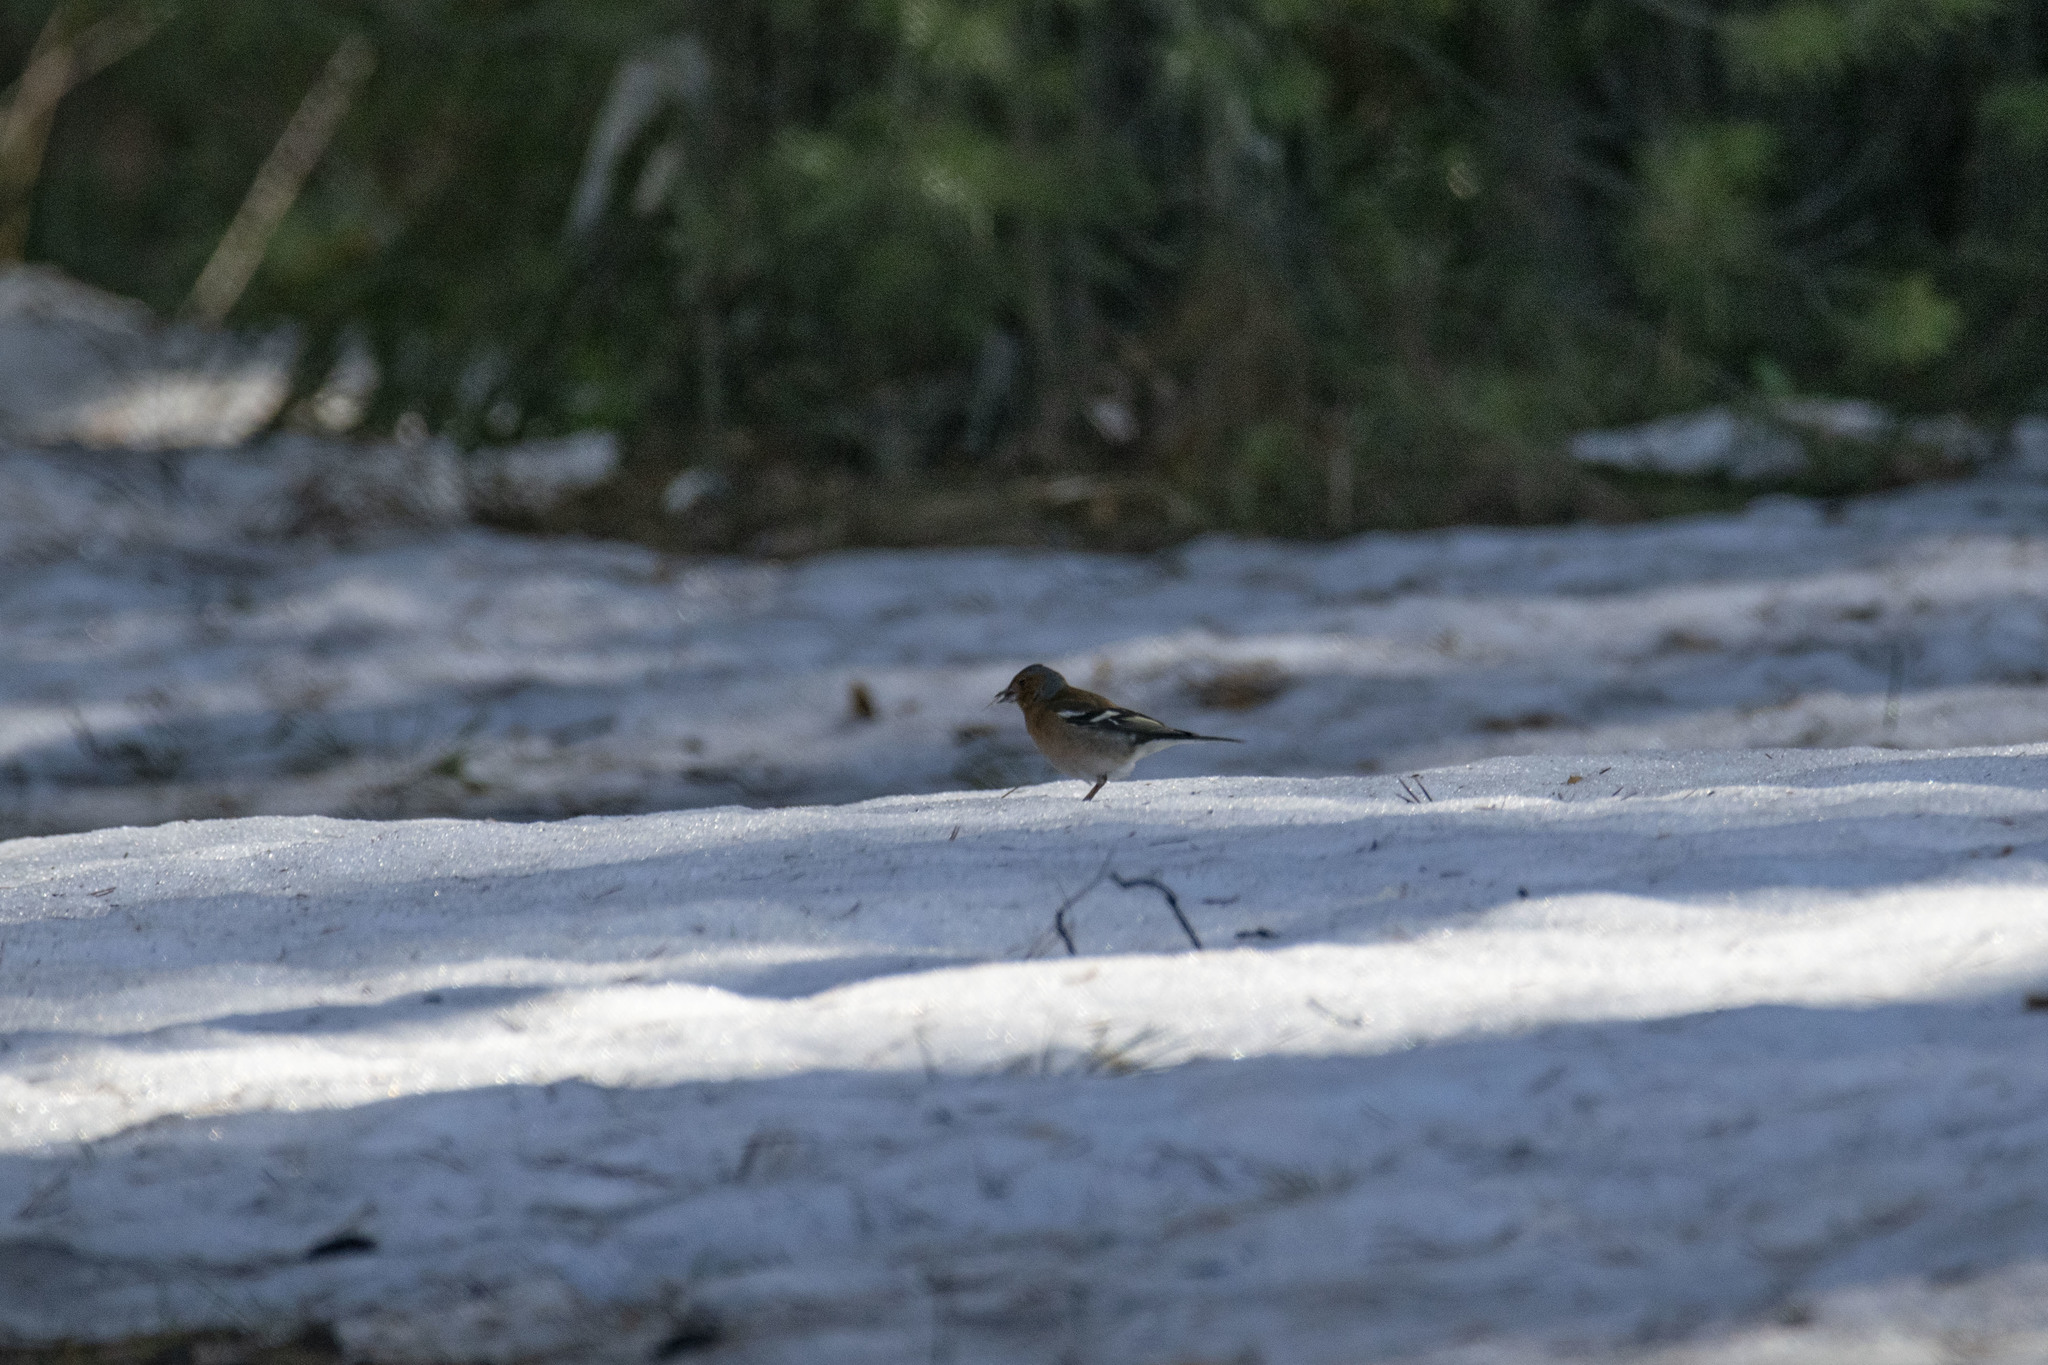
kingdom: Animalia
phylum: Chordata
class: Aves
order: Passeriformes
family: Fringillidae
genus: Fringilla
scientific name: Fringilla coelebs
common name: Common chaffinch
